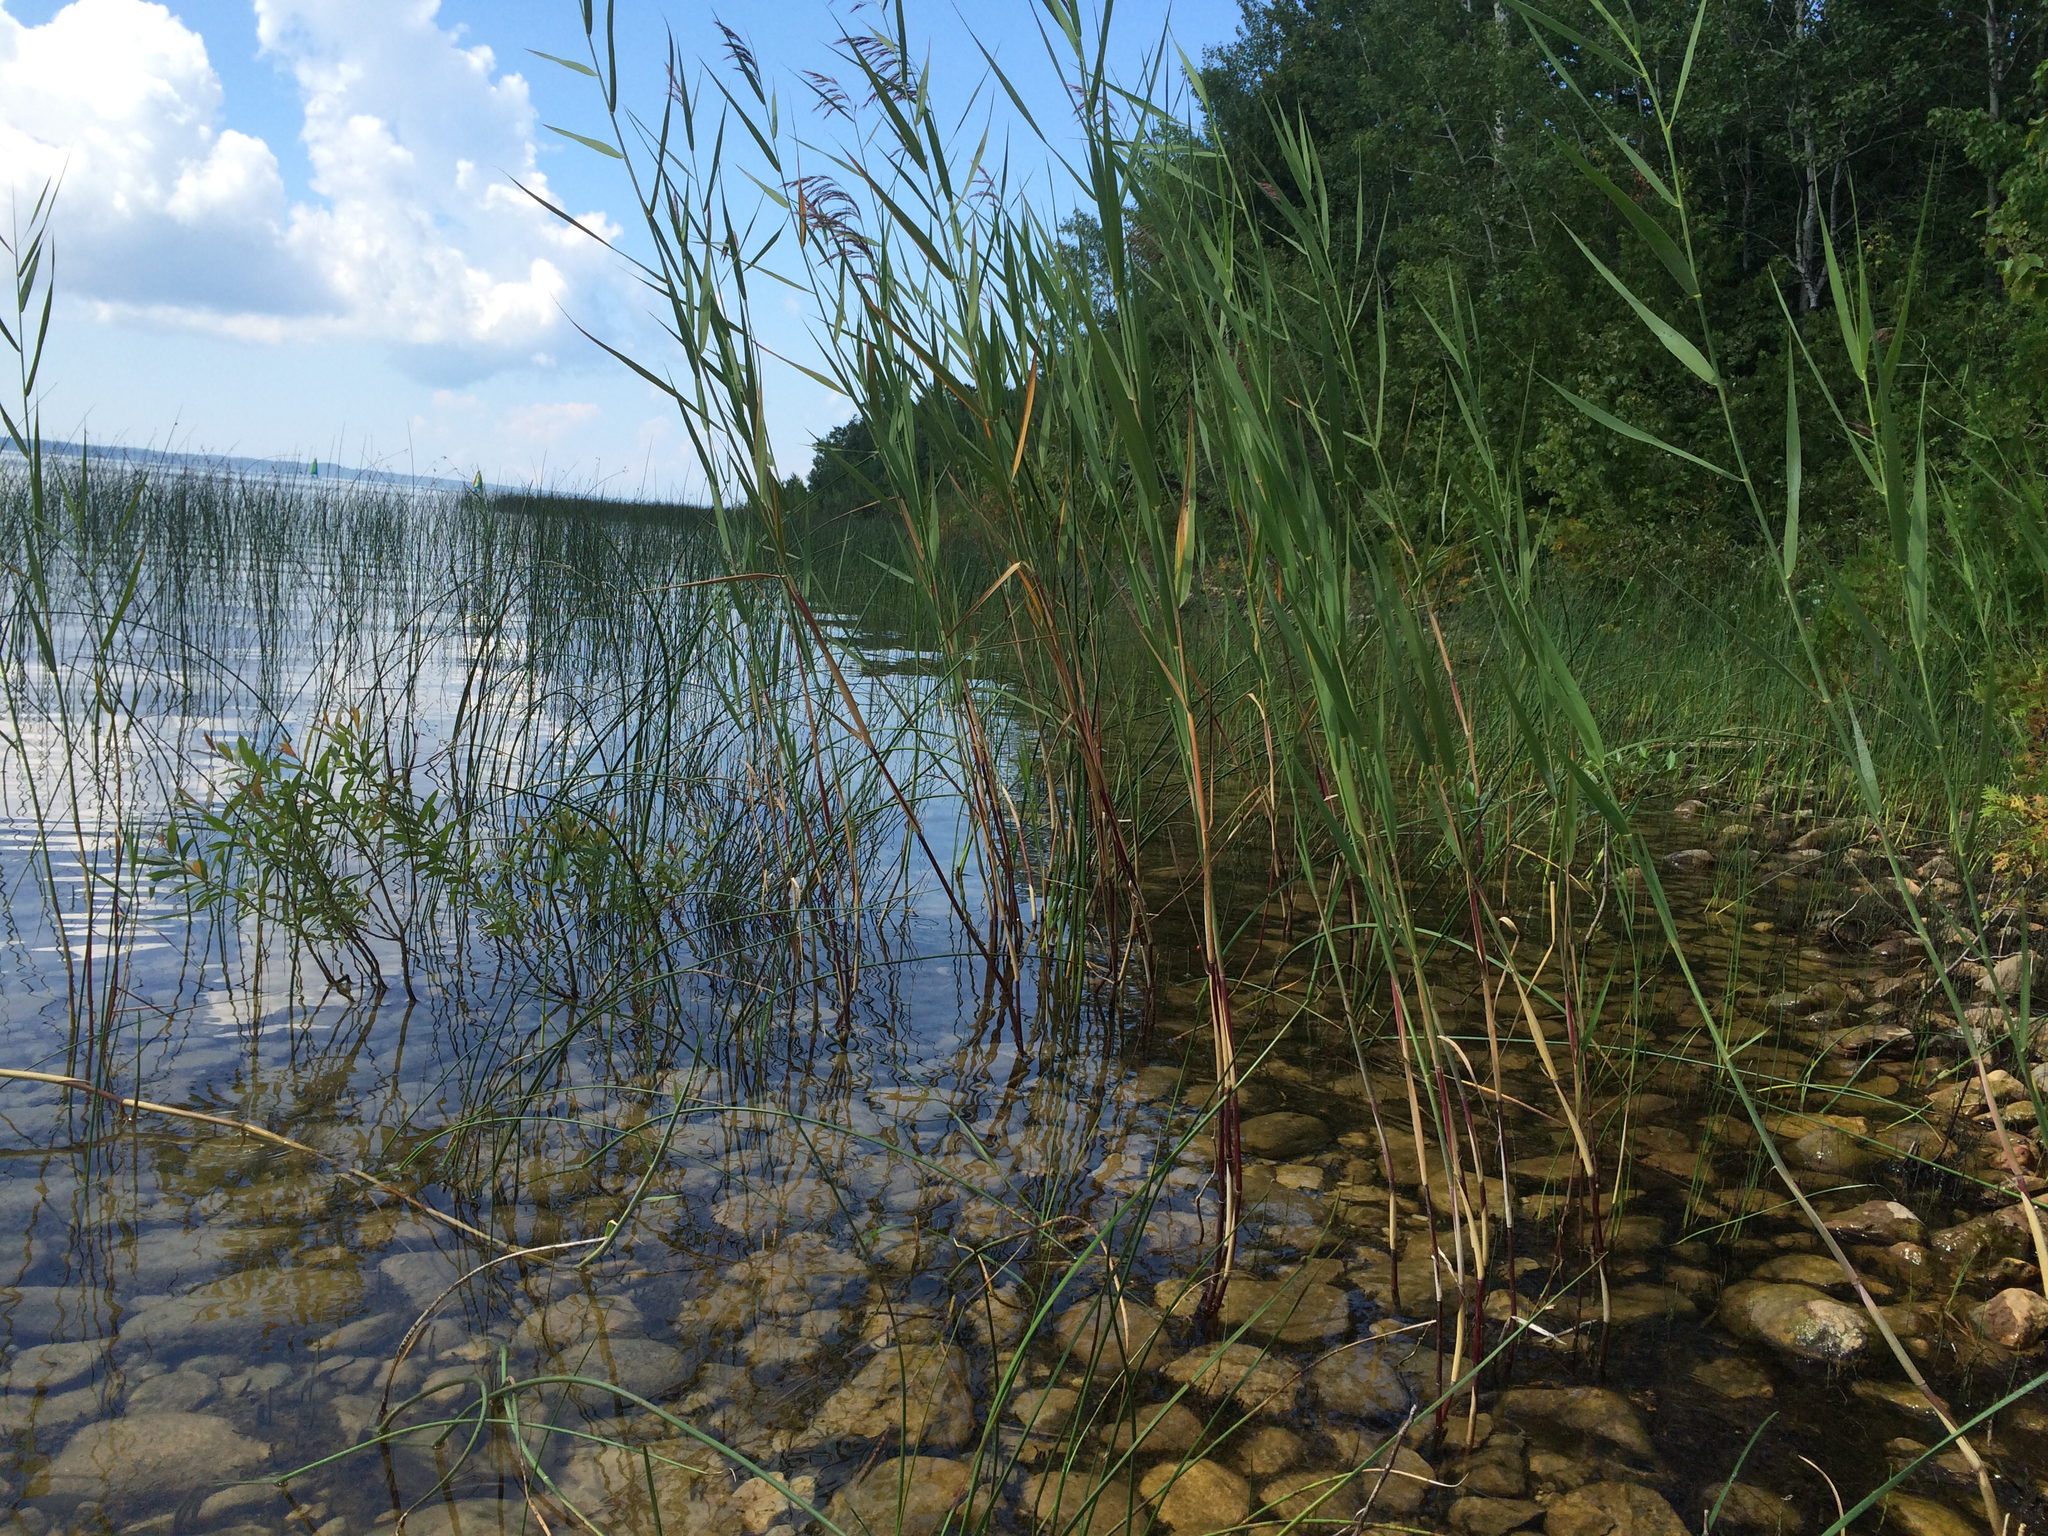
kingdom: Plantae
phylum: Tracheophyta
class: Liliopsida
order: Poales
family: Poaceae
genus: Phragmites
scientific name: Phragmites australis
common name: Common reed
